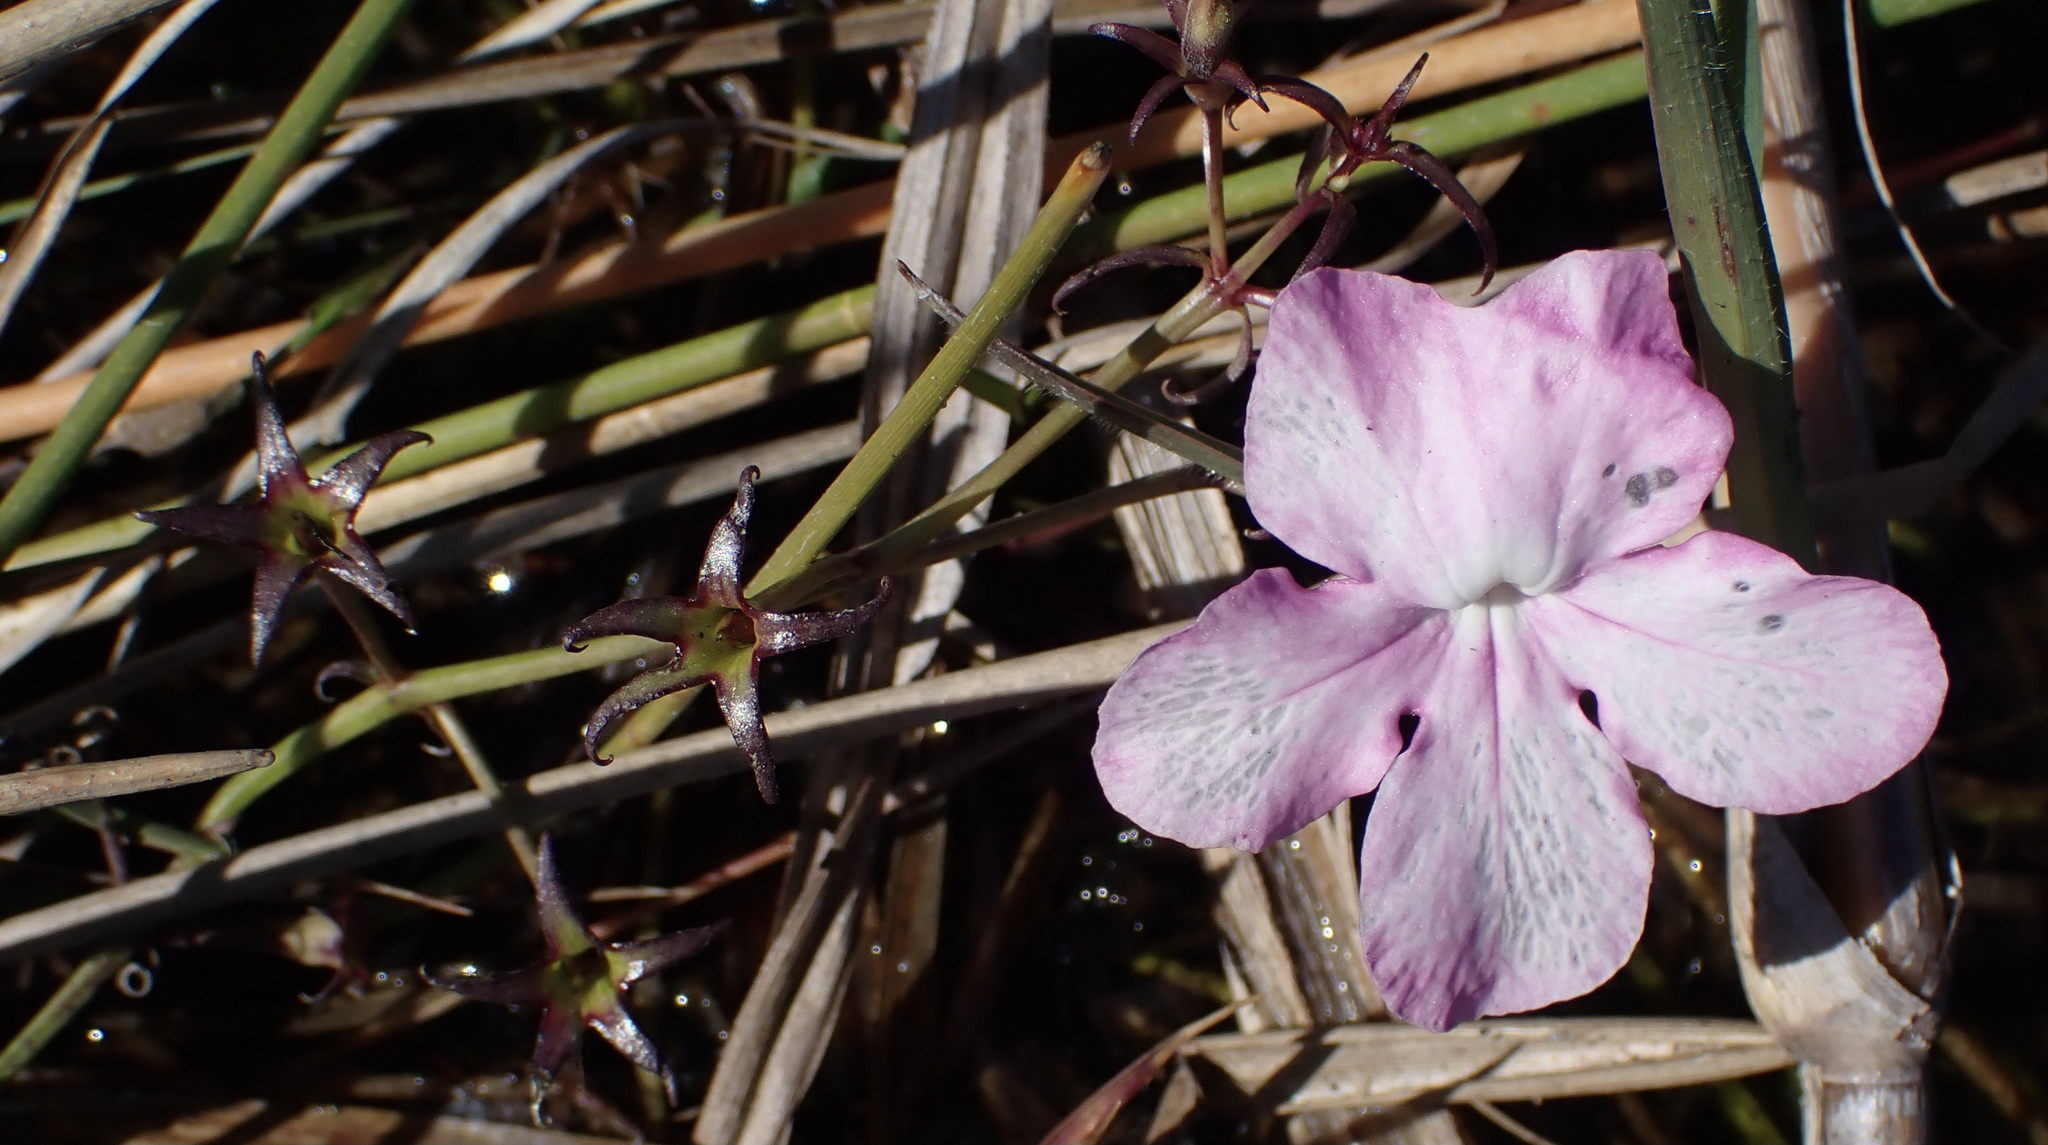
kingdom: Plantae
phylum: Tracheophyta
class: Magnoliopsida
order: Lamiales
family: Orobanchaceae
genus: Cycnium
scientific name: Cycnium tubulosum
